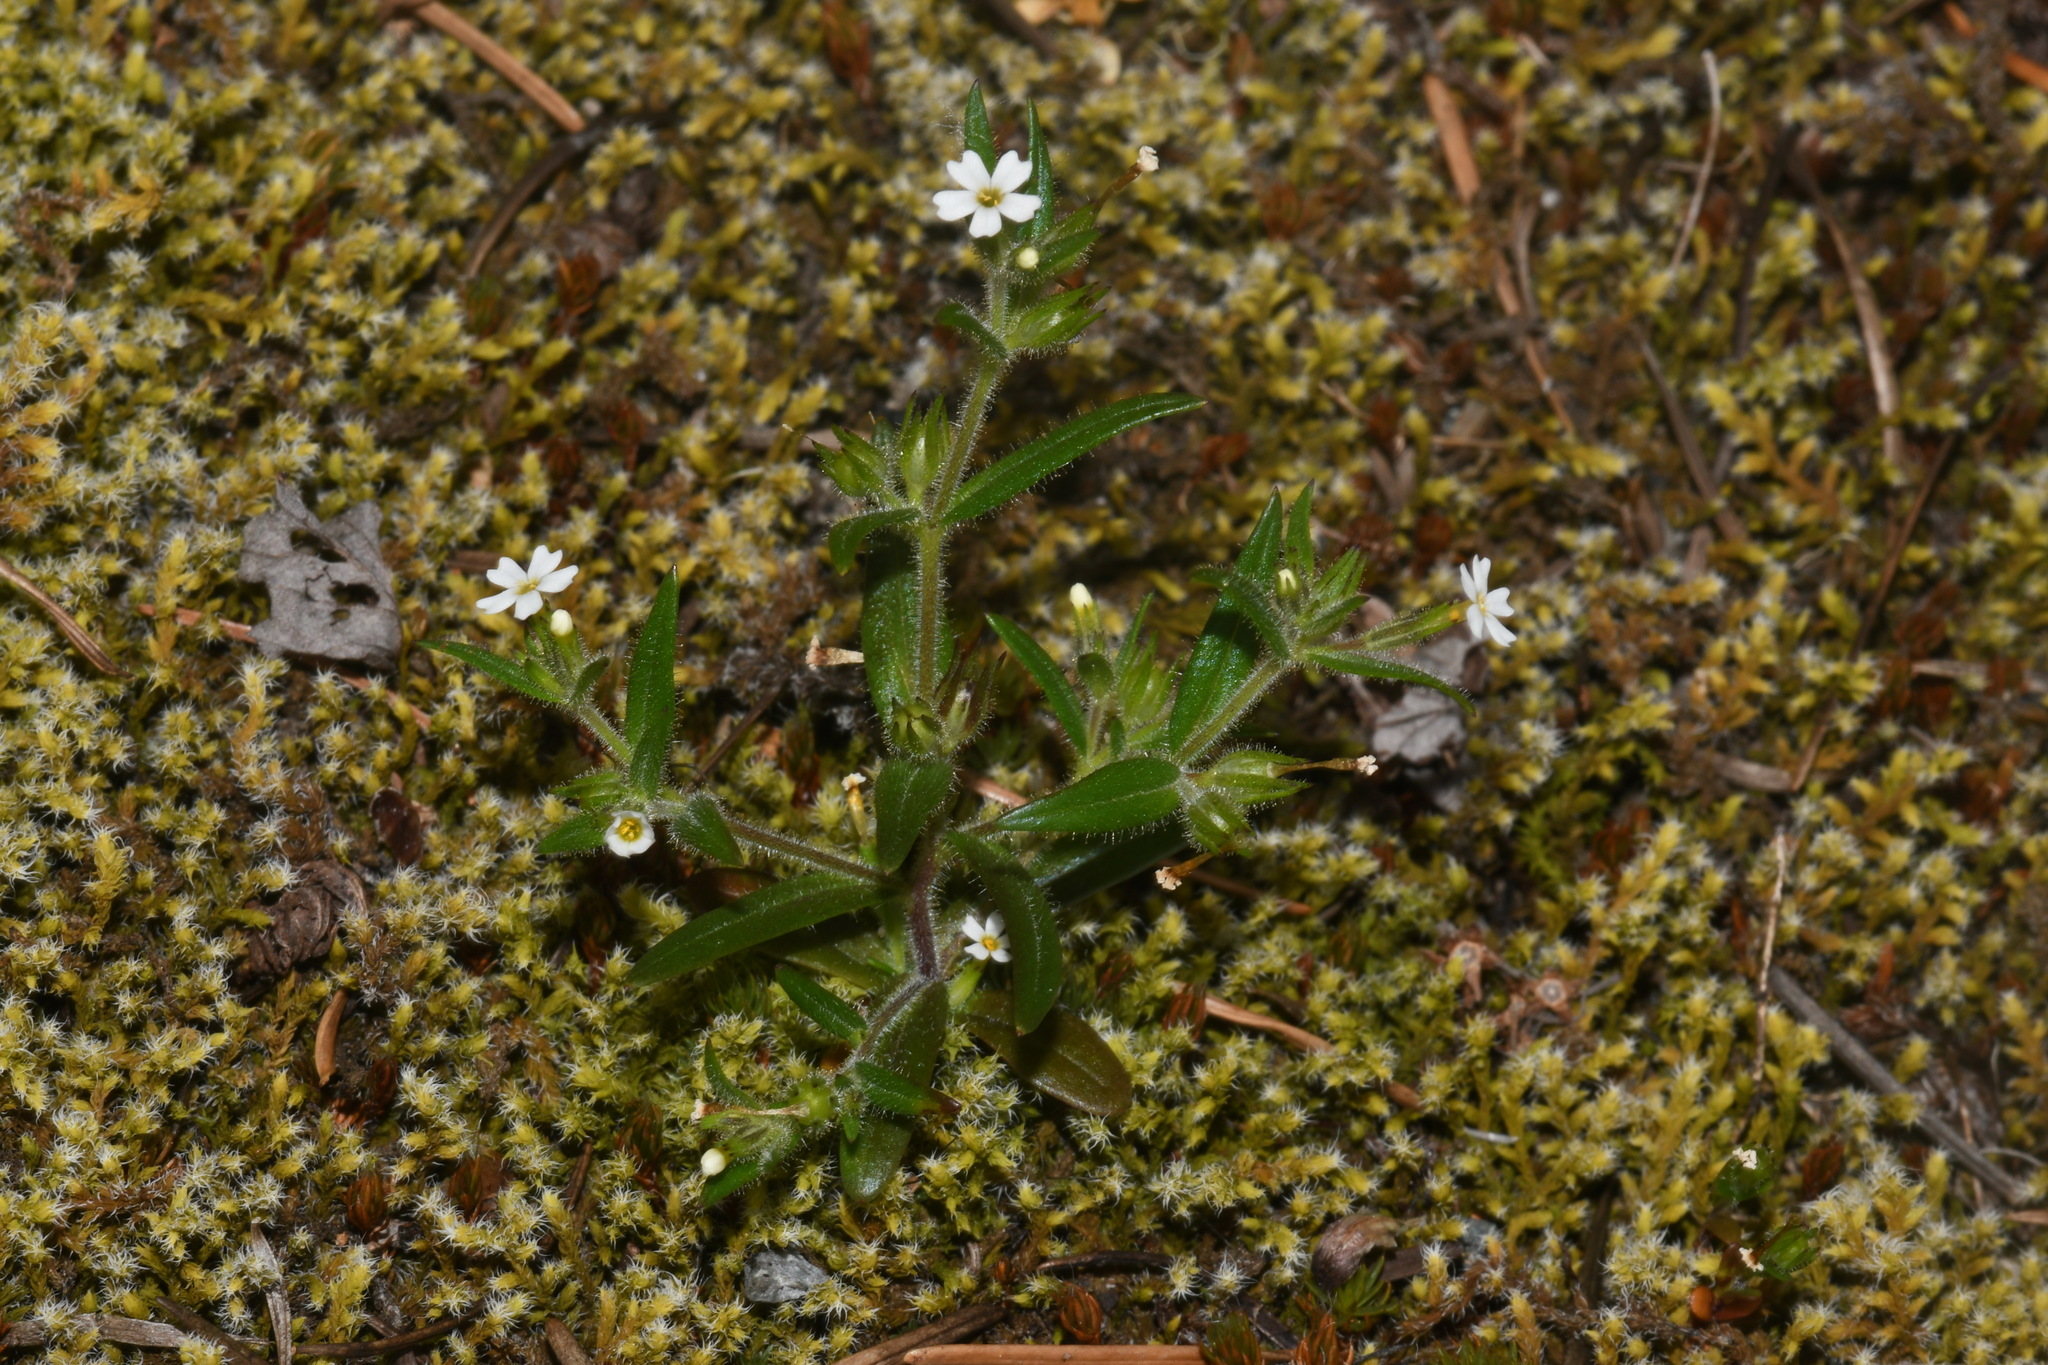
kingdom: Plantae
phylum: Tracheophyta
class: Magnoliopsida
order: Ericales
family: Polemoniaceae
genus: Phlox
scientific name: Phlox gracilis
